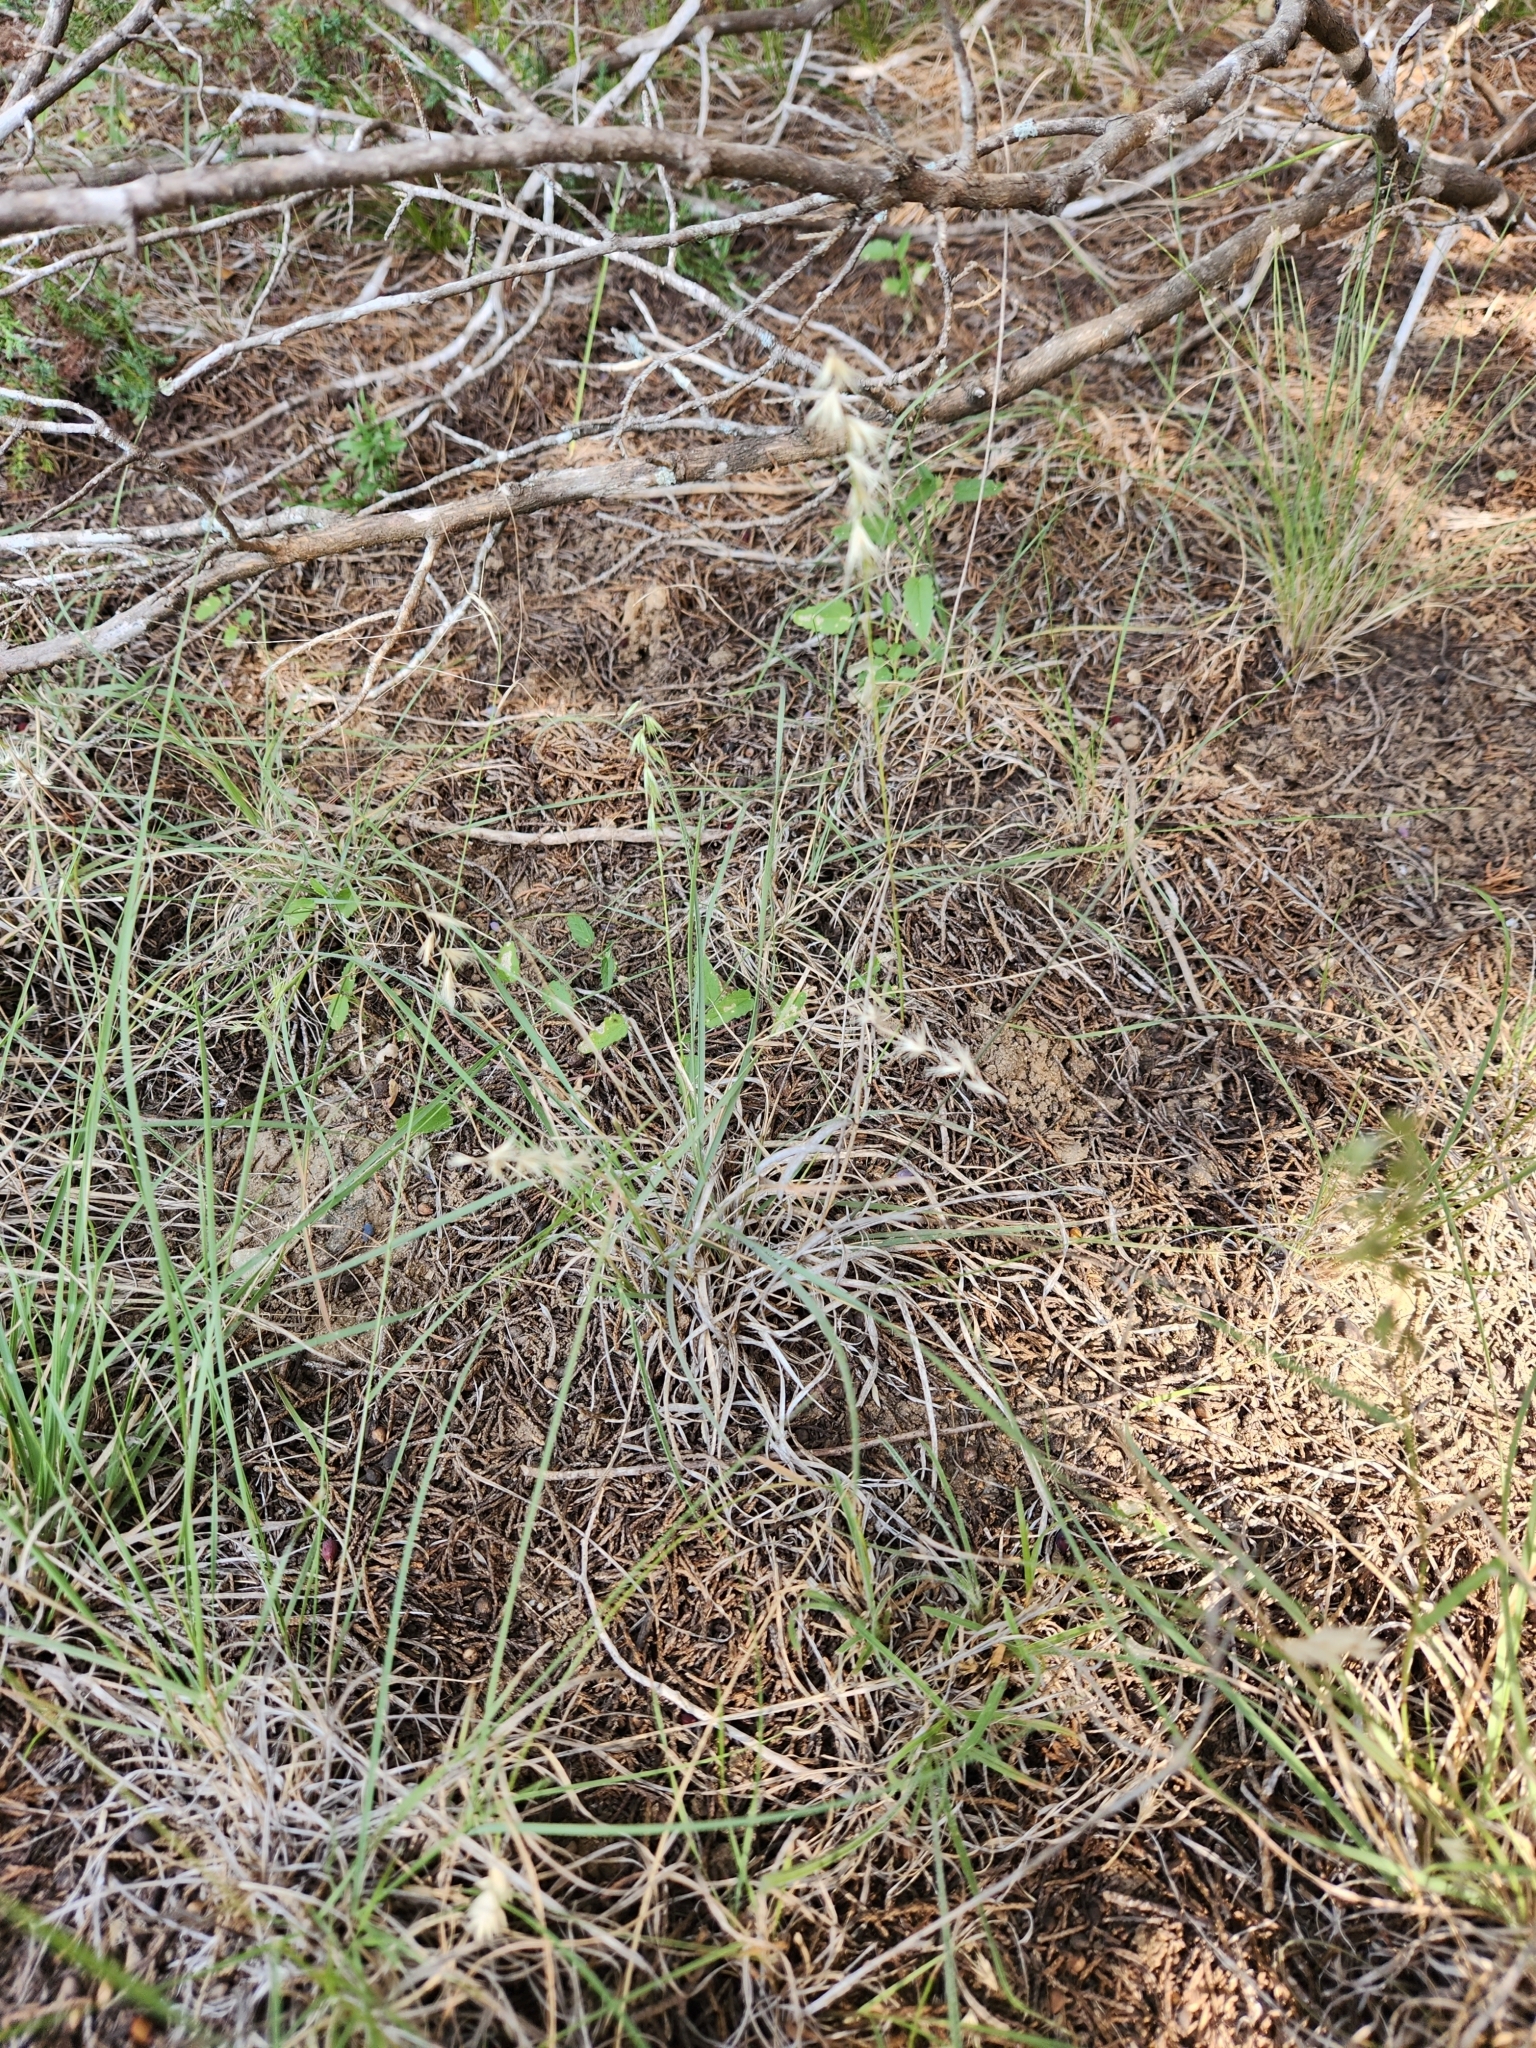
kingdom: Plantae
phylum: Tracheophyta
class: Liliopsida
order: Poales
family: Poaceae
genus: Bouteloua
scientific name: Bouteloua rigidiseta
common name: Texas grama
